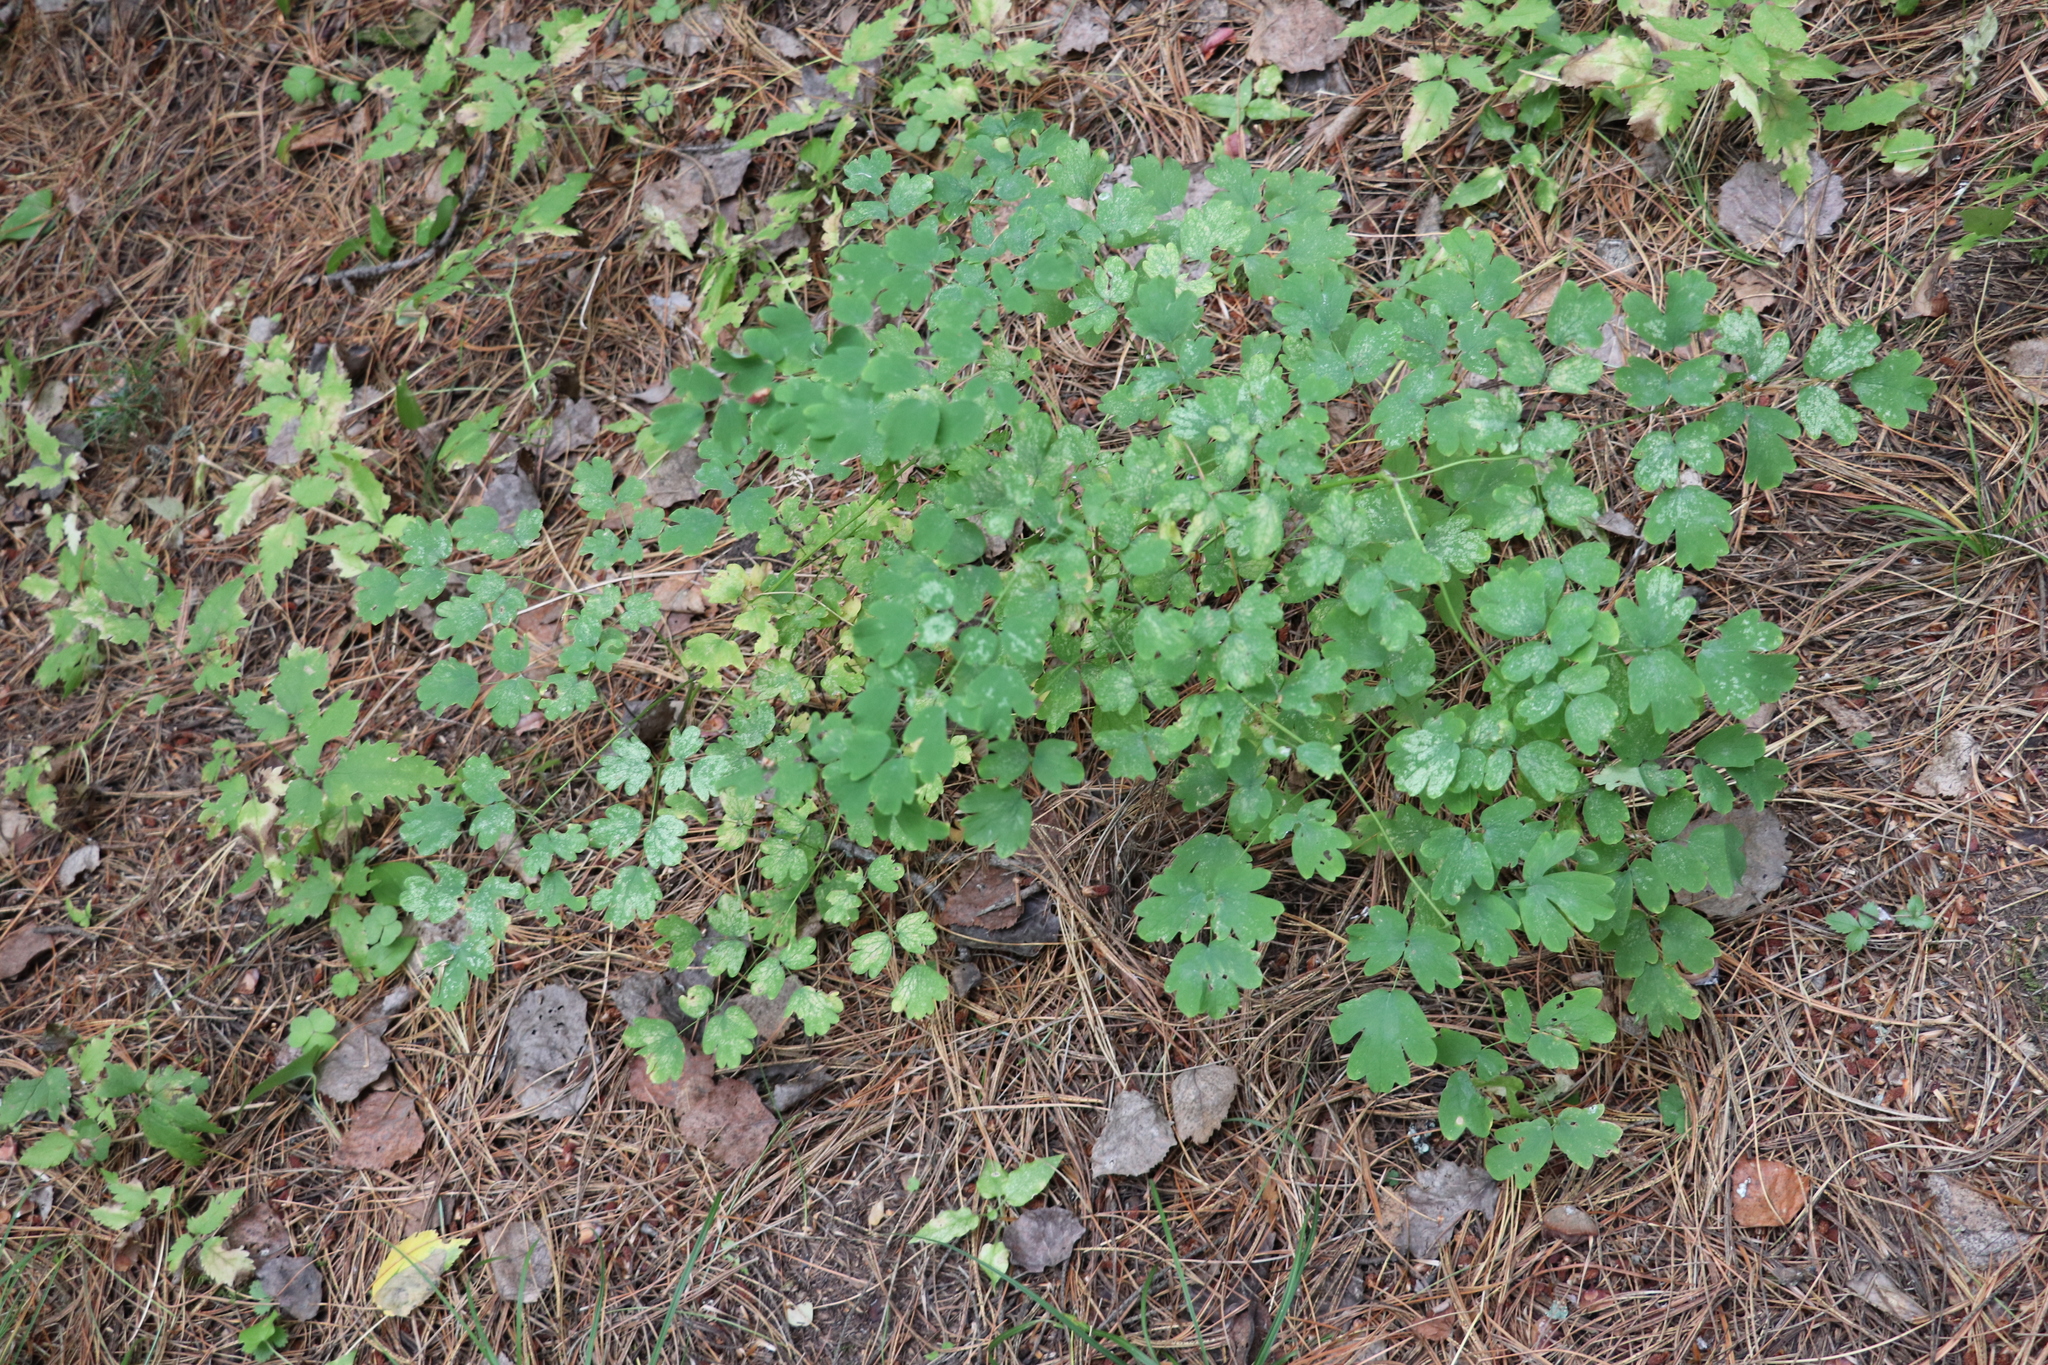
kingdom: Plantae
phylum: Tracheophyta
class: Magnoliopsida
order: Ranunculales
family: Ranunculaceae
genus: Thalictrum
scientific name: Thalictrum minus
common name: Lesser meadow-rue
